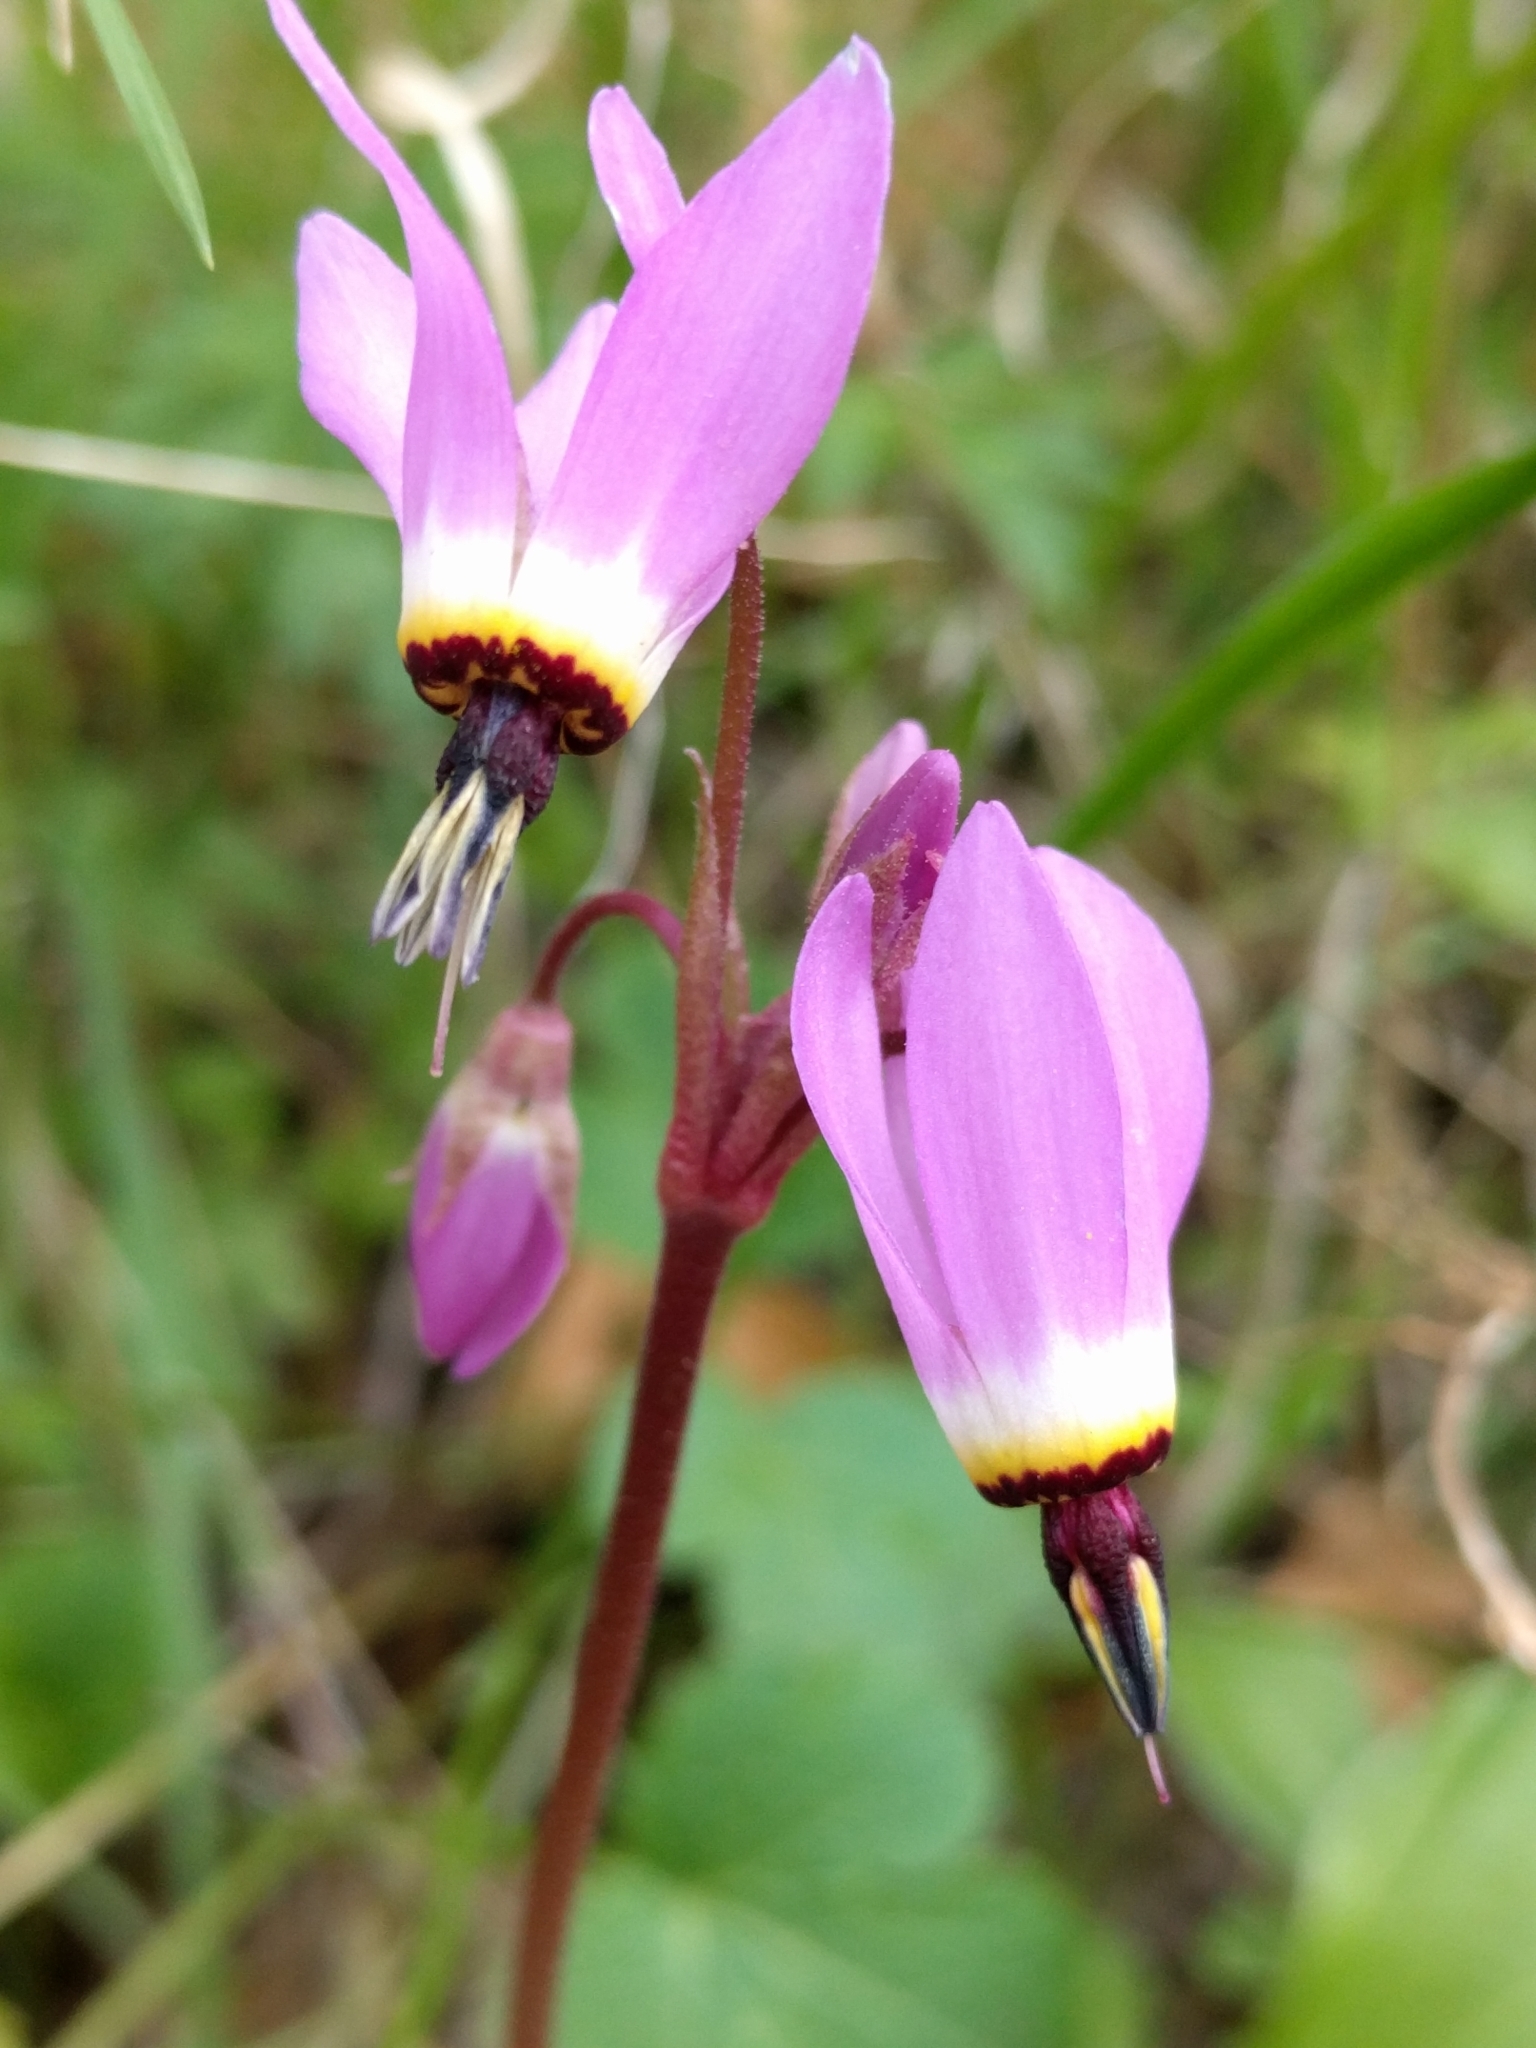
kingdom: Plantae
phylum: Tracheophyta
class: Magnoliopsida
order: Ericales
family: Primulaceae
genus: Dodecatheon
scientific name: Dodecatheon hendersonii
